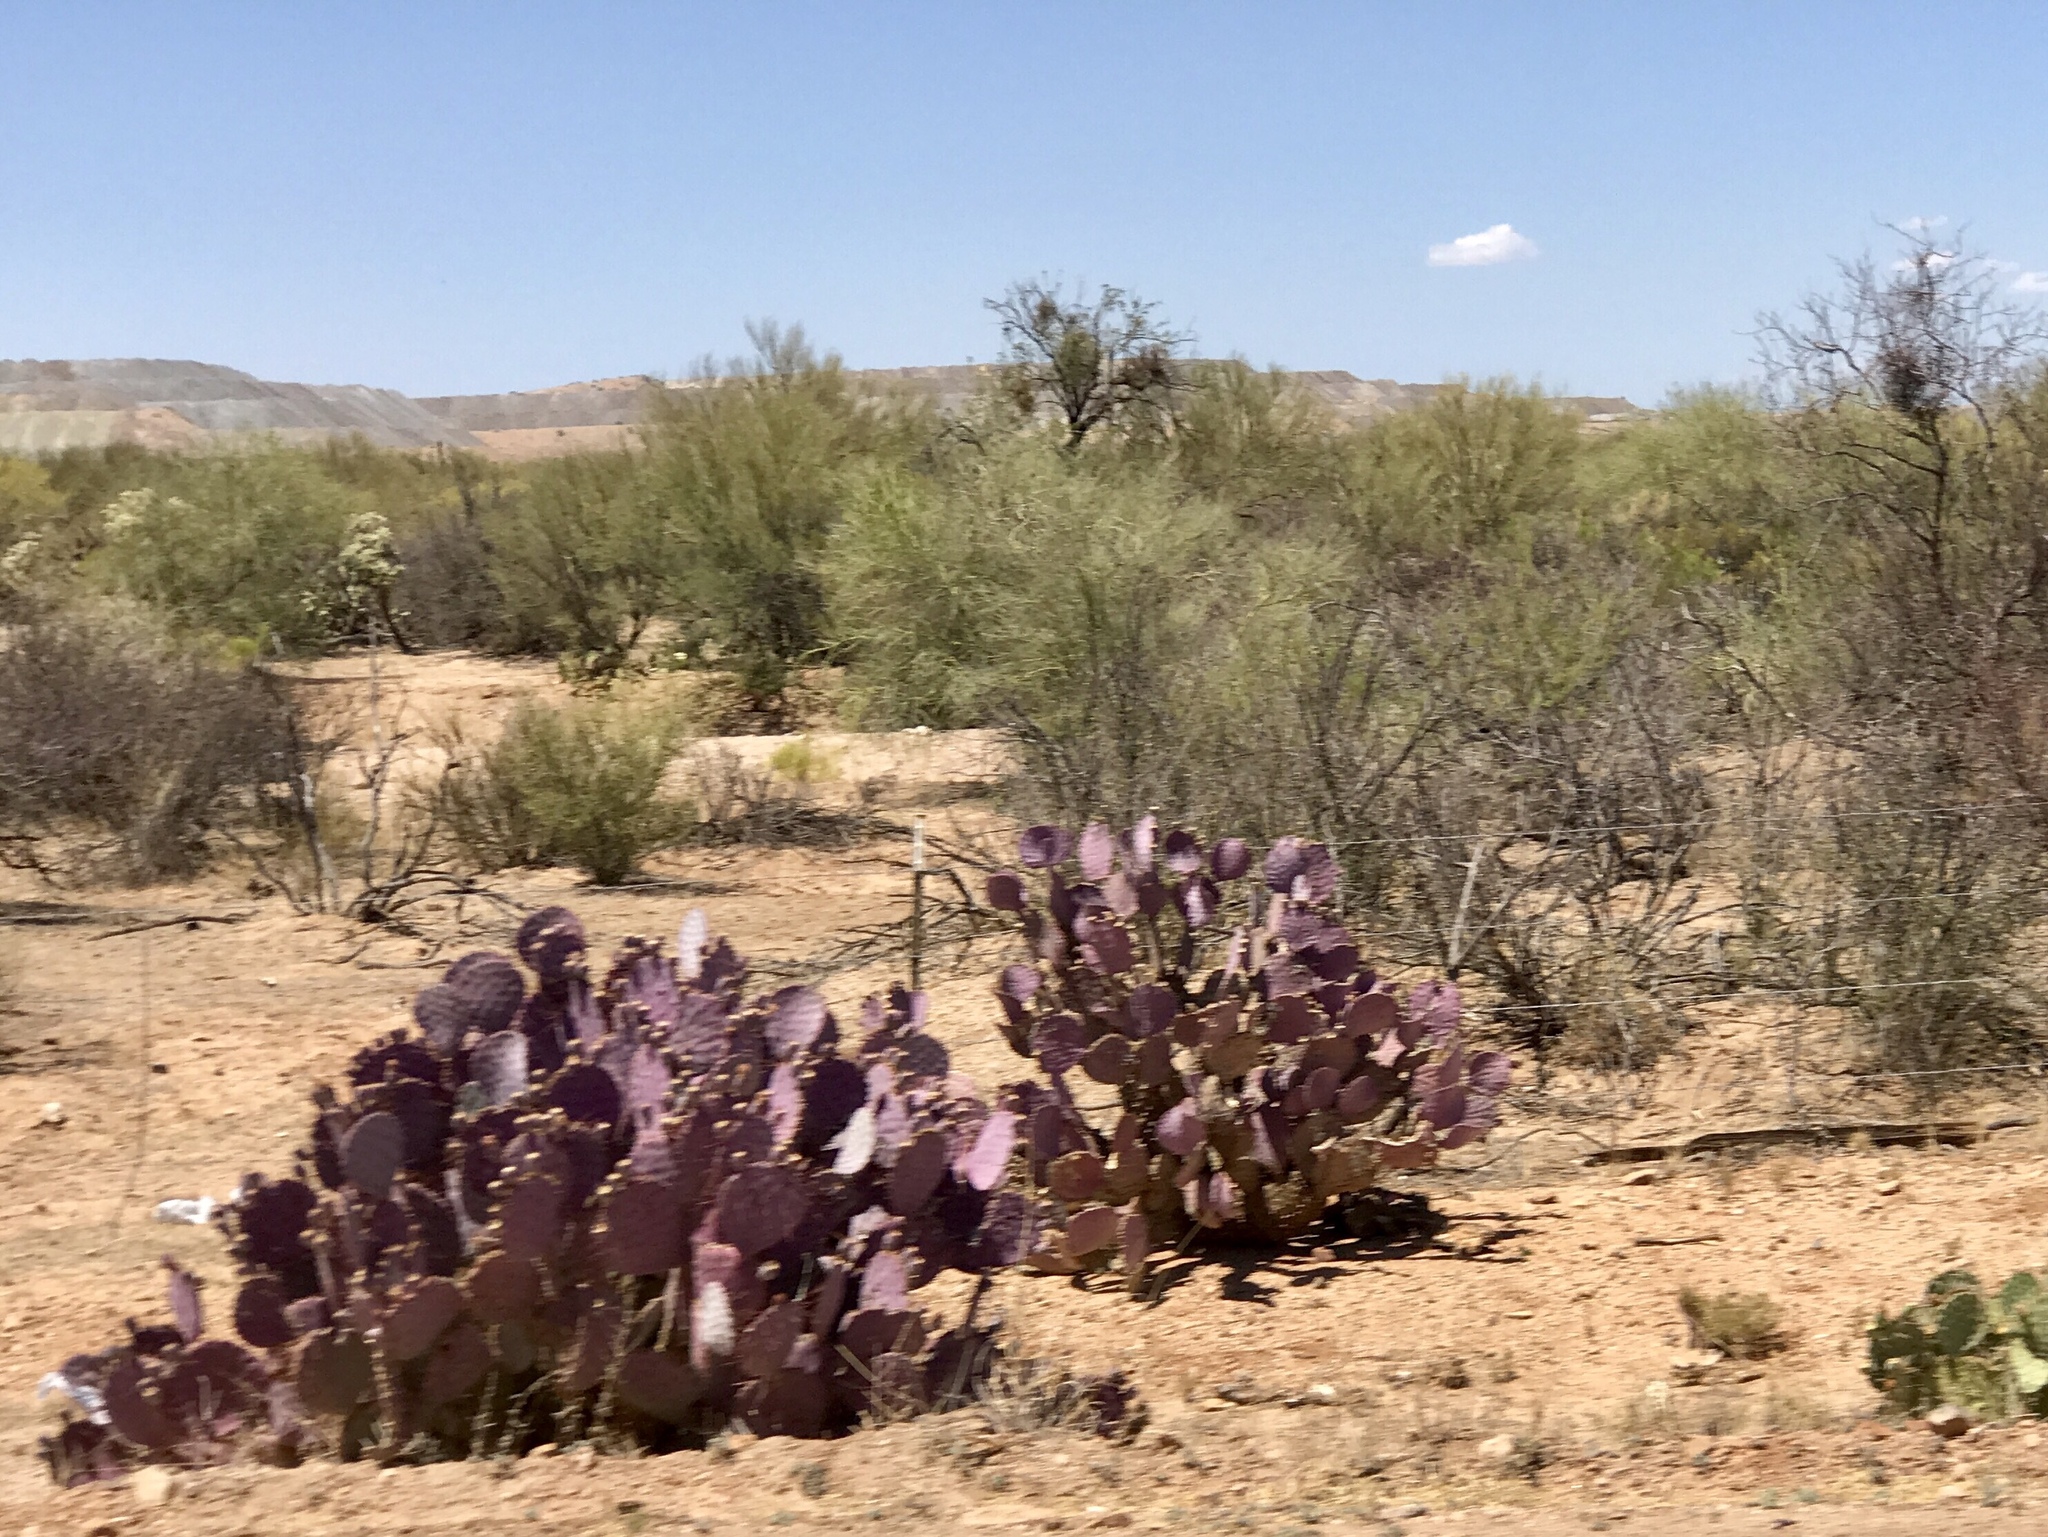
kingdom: Plantae
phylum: Tracheophyta
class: Magnoliopsida
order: Caryophyllales
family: Cactaceae
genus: Opuntia
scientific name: Opuntia gosseliniana
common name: Violet prickly-pear
